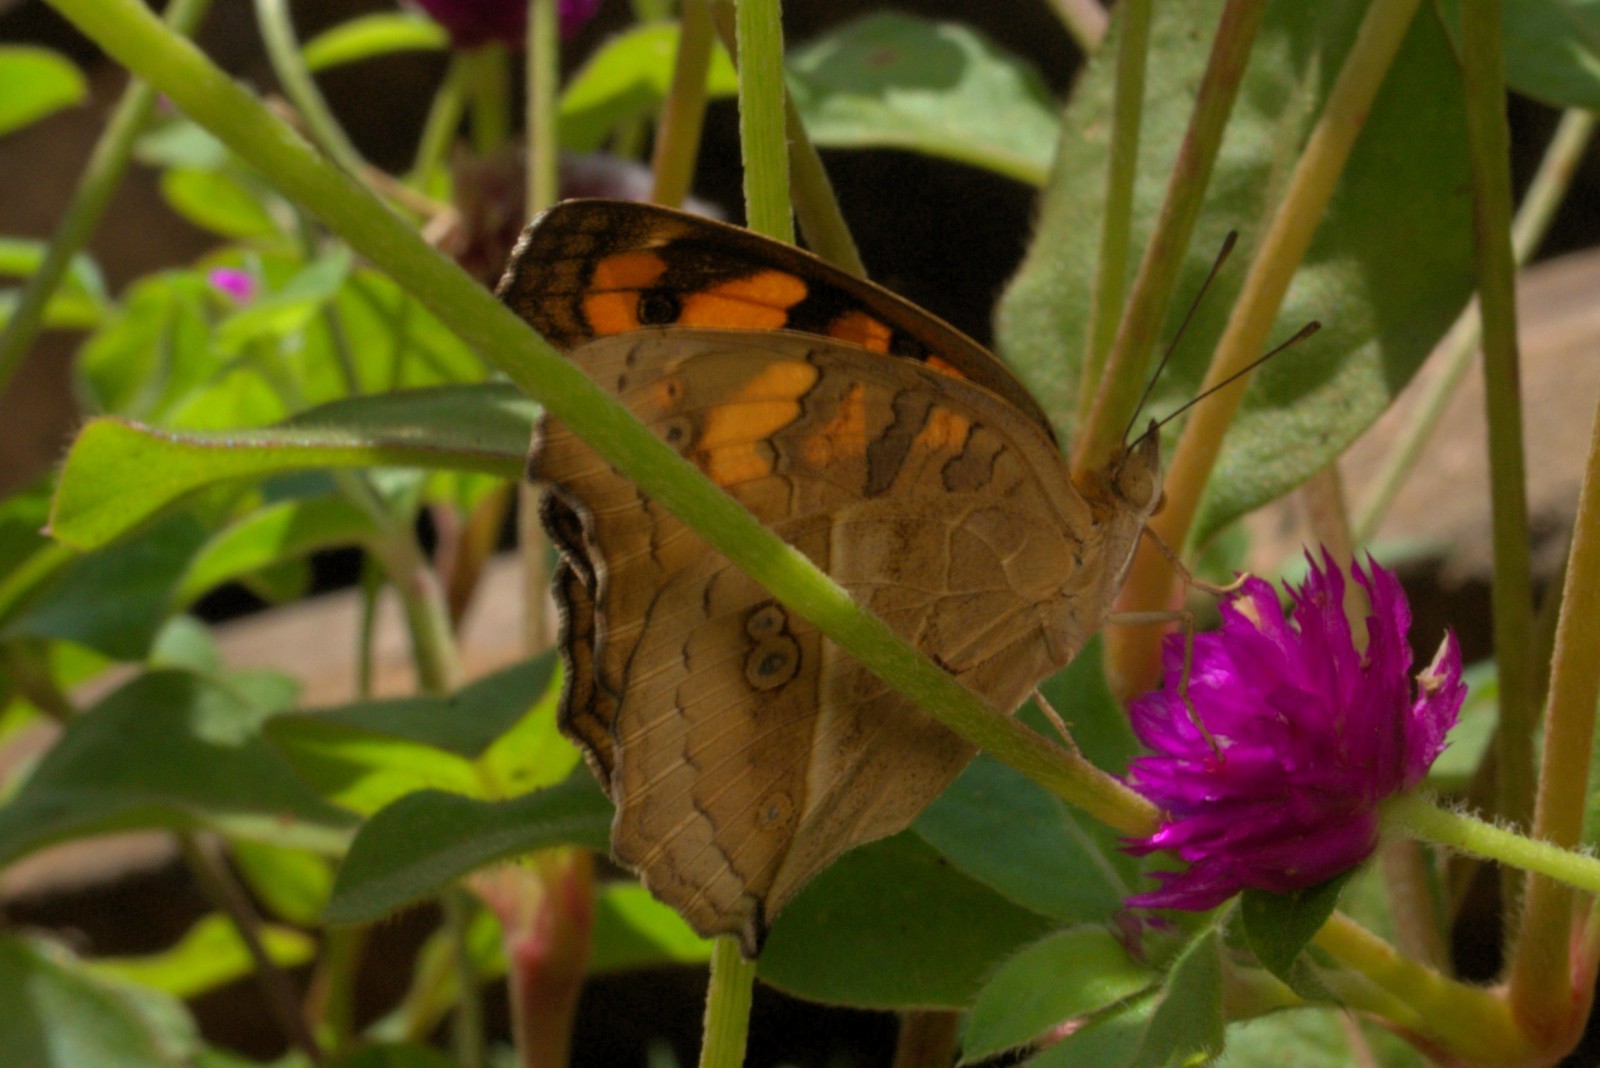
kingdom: Animalia
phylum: Arthropoda
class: Insecta
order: Lepidoptera
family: Nymphalidae
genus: Junonia
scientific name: Junonia almana
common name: Peacock pansy
